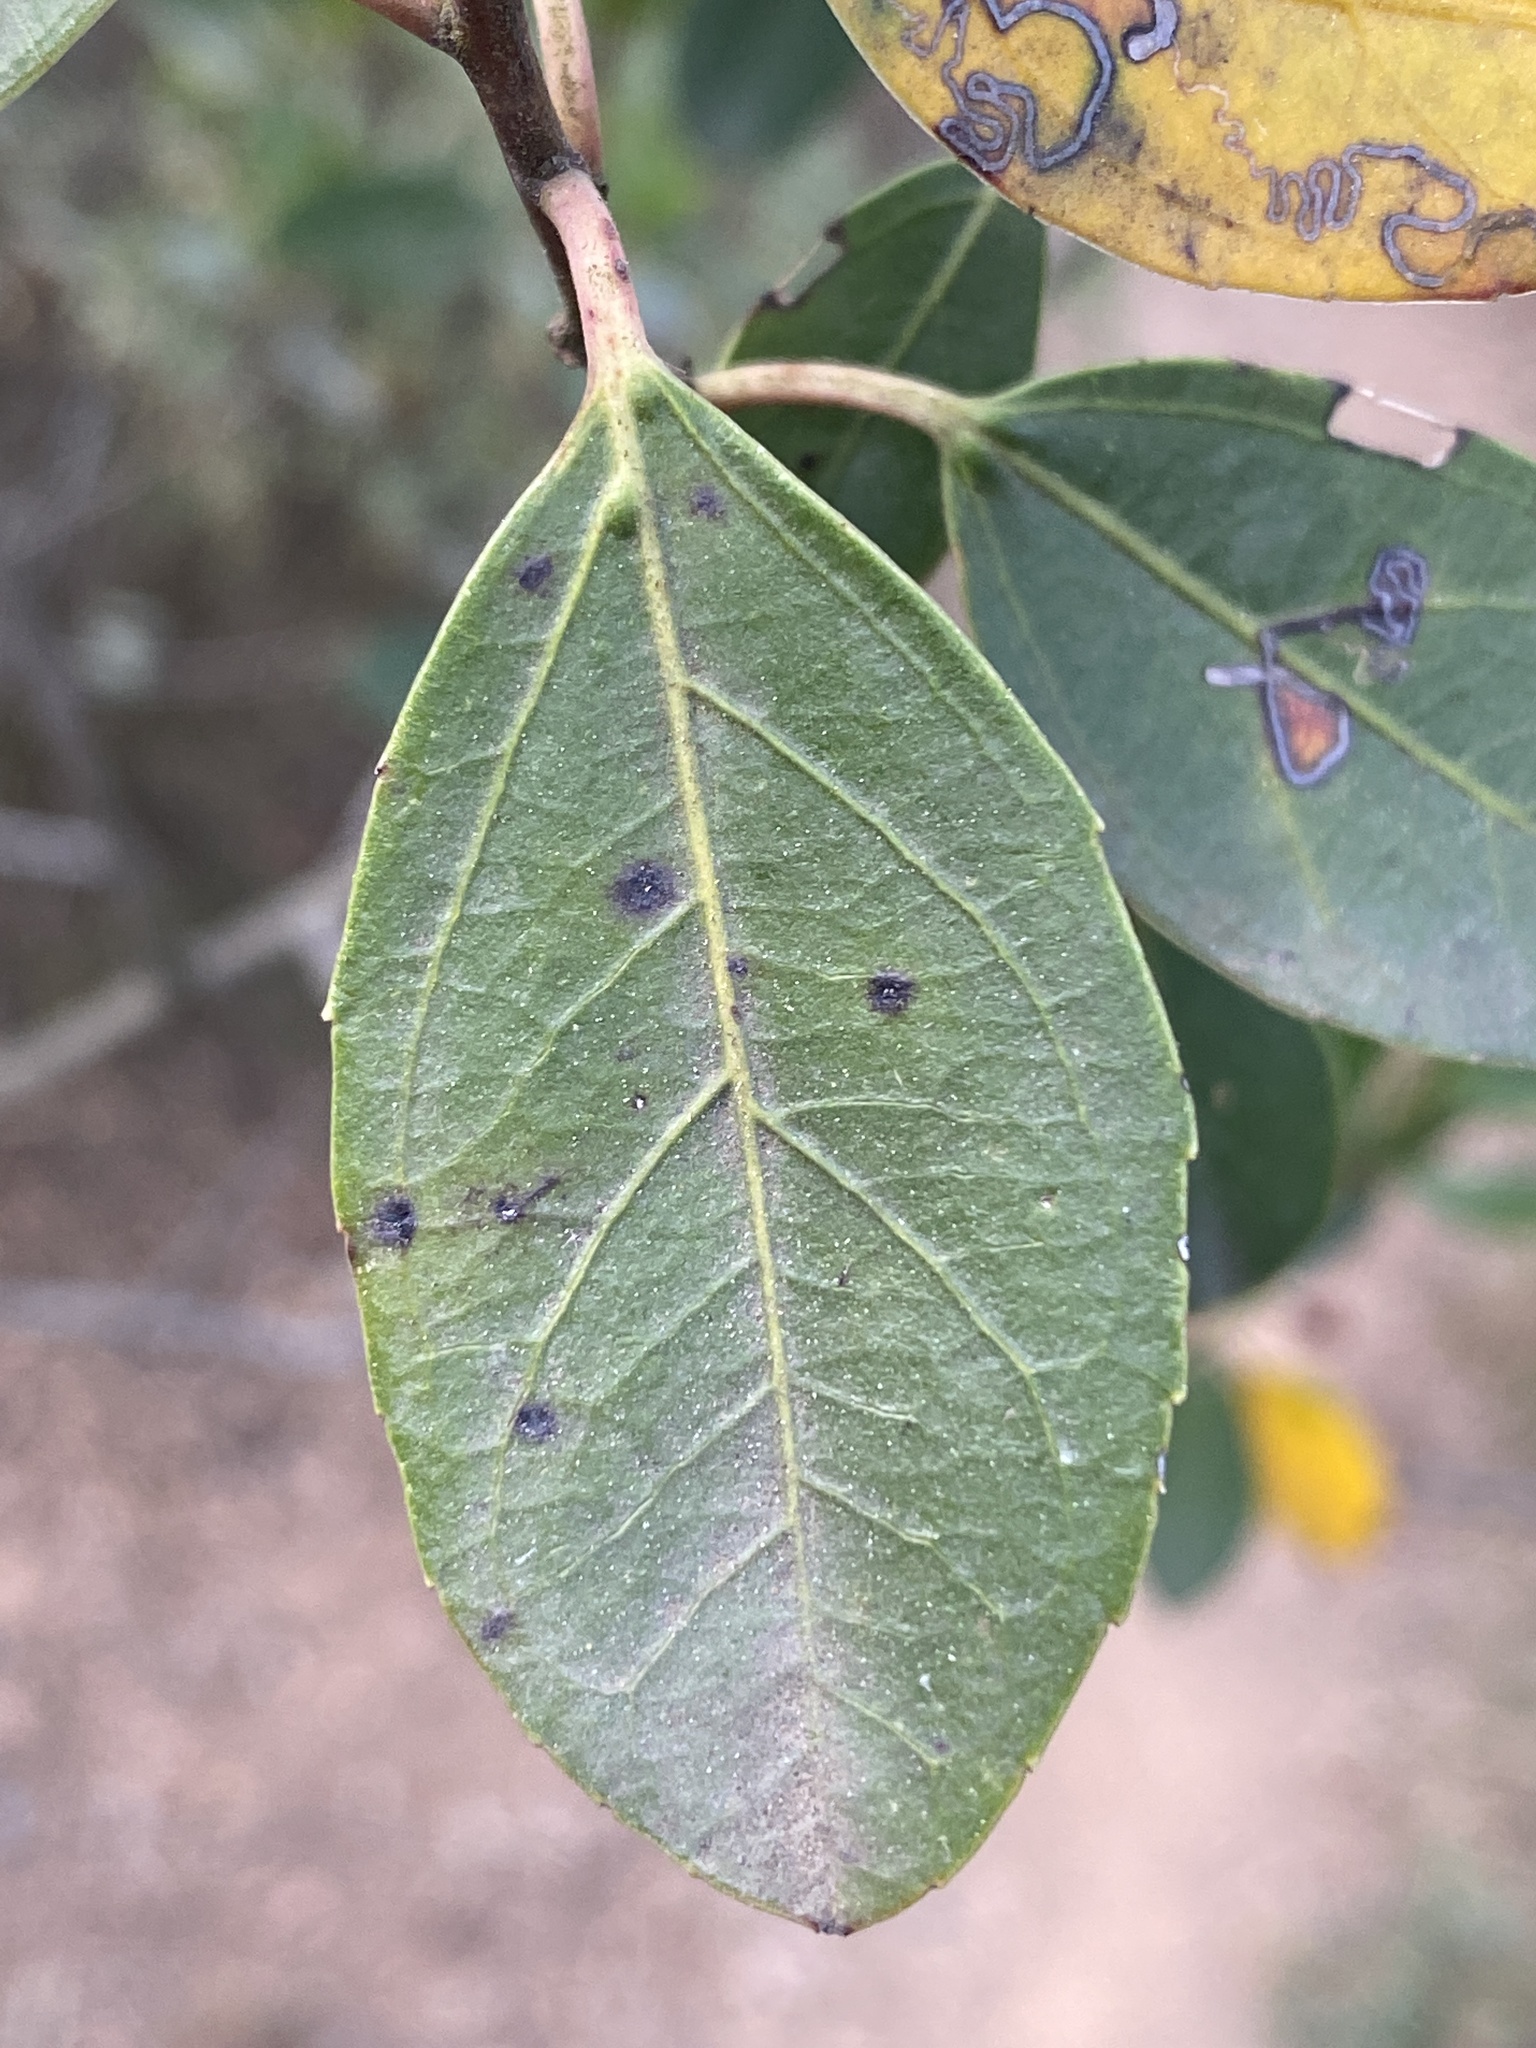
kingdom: Plantae
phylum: Tracheophyta
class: Magnoliopsida
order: Rosales
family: Rhamnaceae
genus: Rhamnus
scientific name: Rhamnus alaternus
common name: Mediterranean buckthorn
